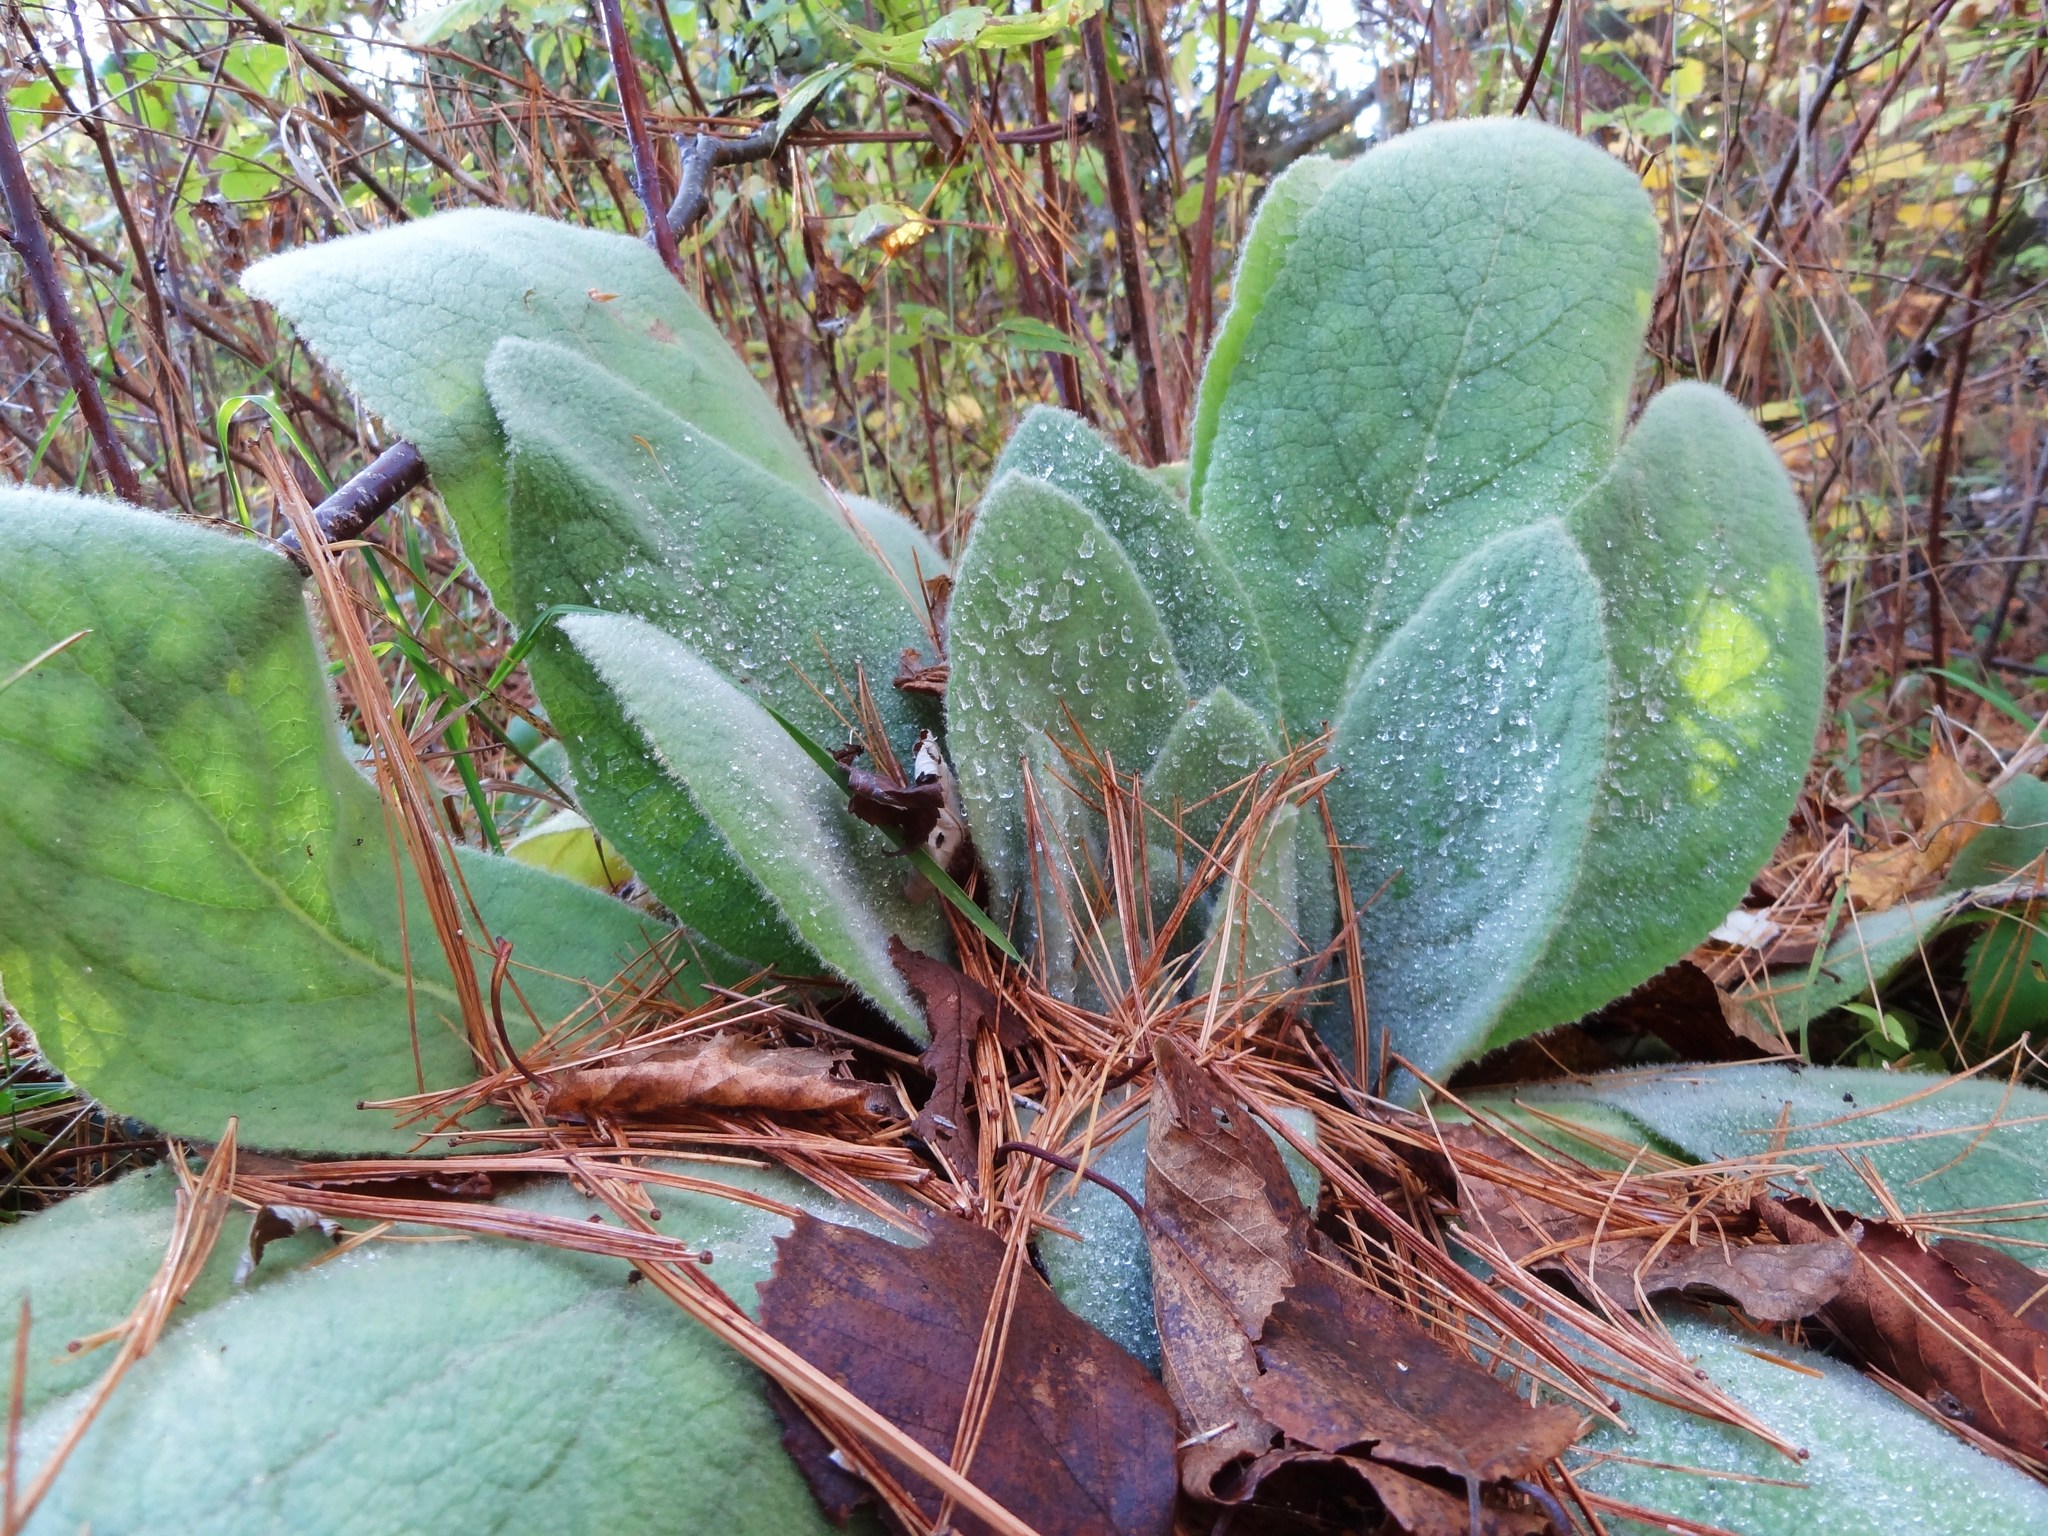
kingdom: Plantae
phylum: Tracheophyta
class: Magnoliopsida
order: Lamiales
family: Scrophulariaceae
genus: Verbascum
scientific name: Verbascum thapsus
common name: Common mullein
